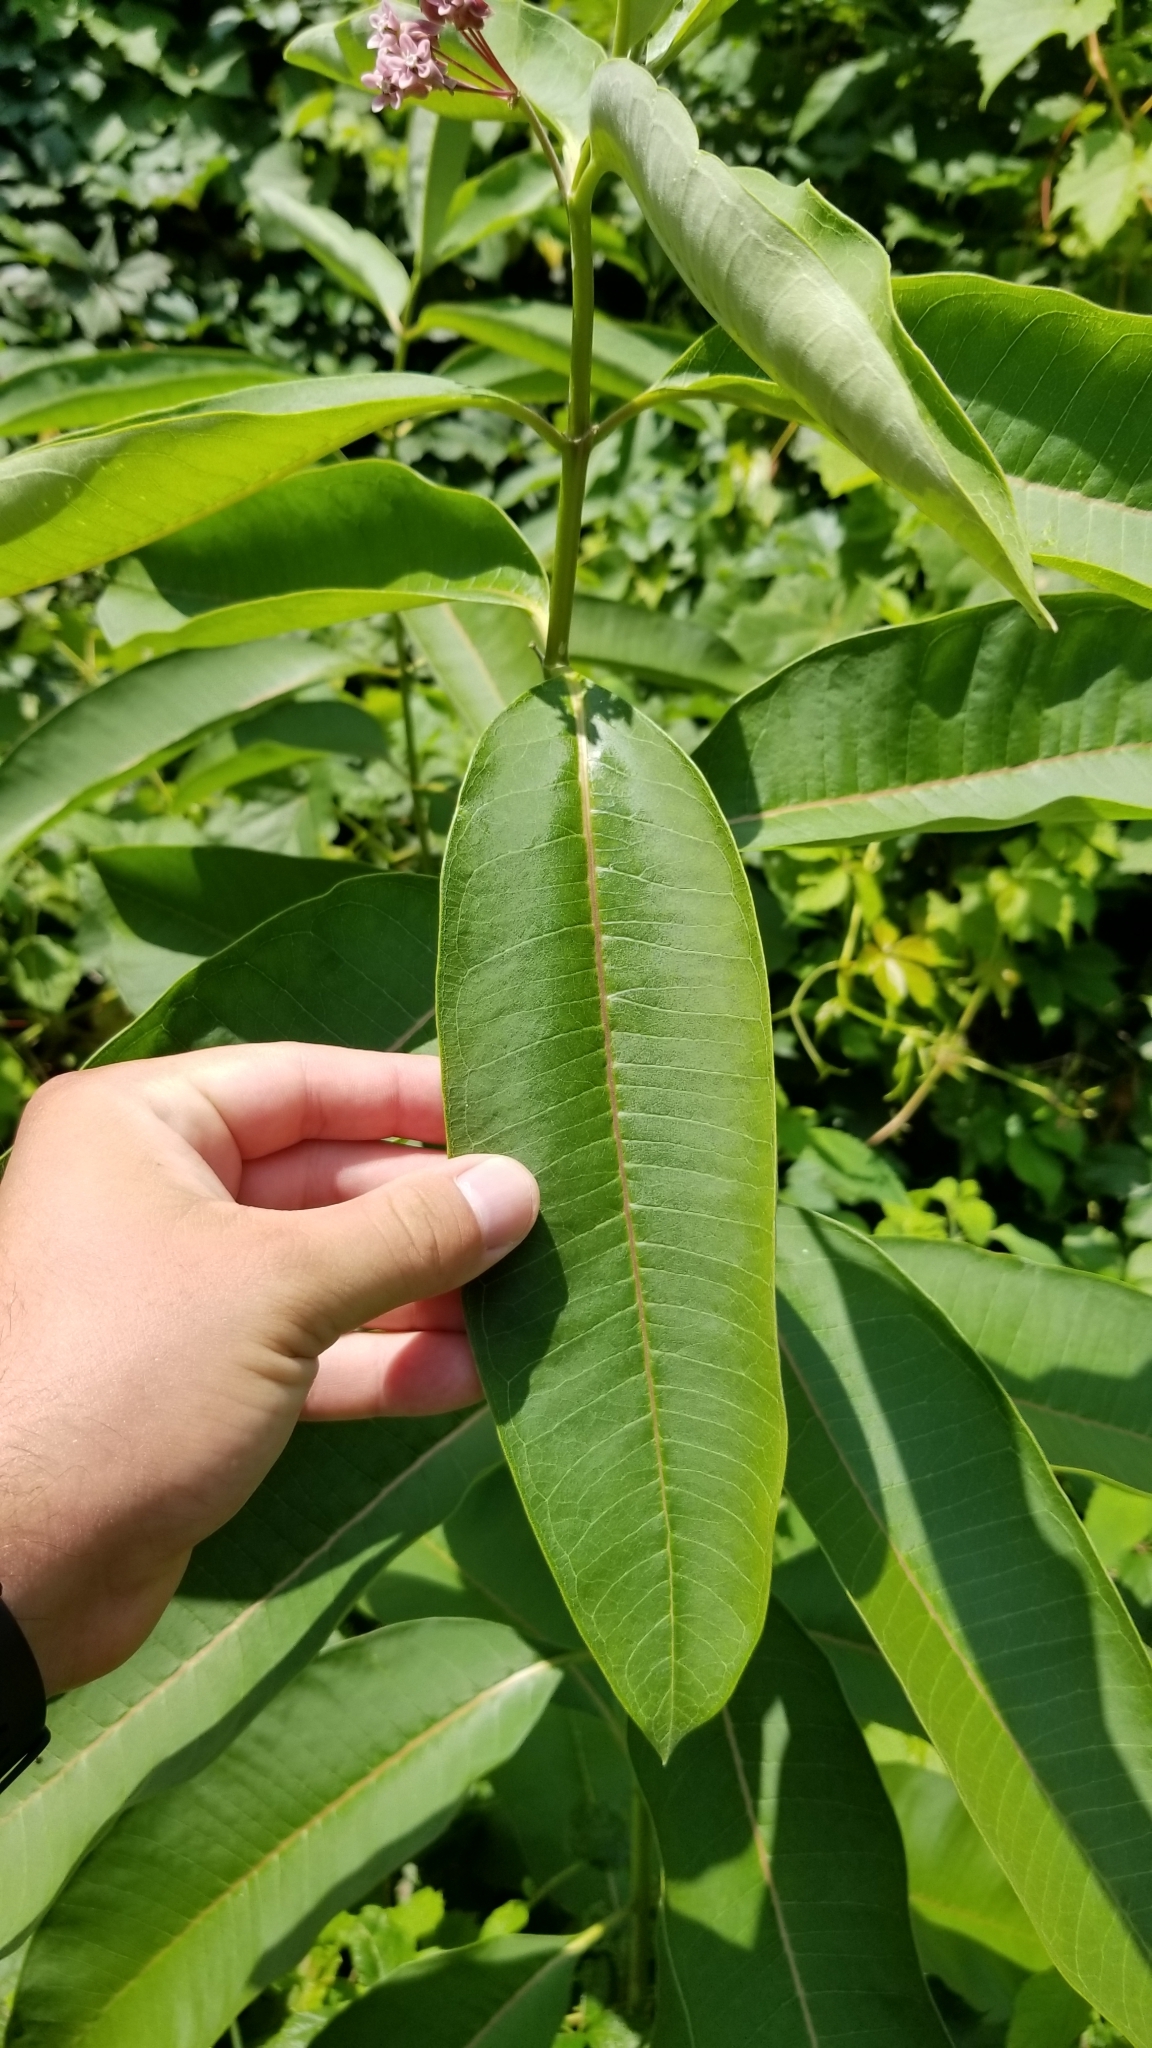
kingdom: Plantae
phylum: Tracheophyta
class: Magnoliopsida
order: Gentianales
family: Apocynaceae
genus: Asclepias
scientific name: Asclepias syriaca
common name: Common milkweed
